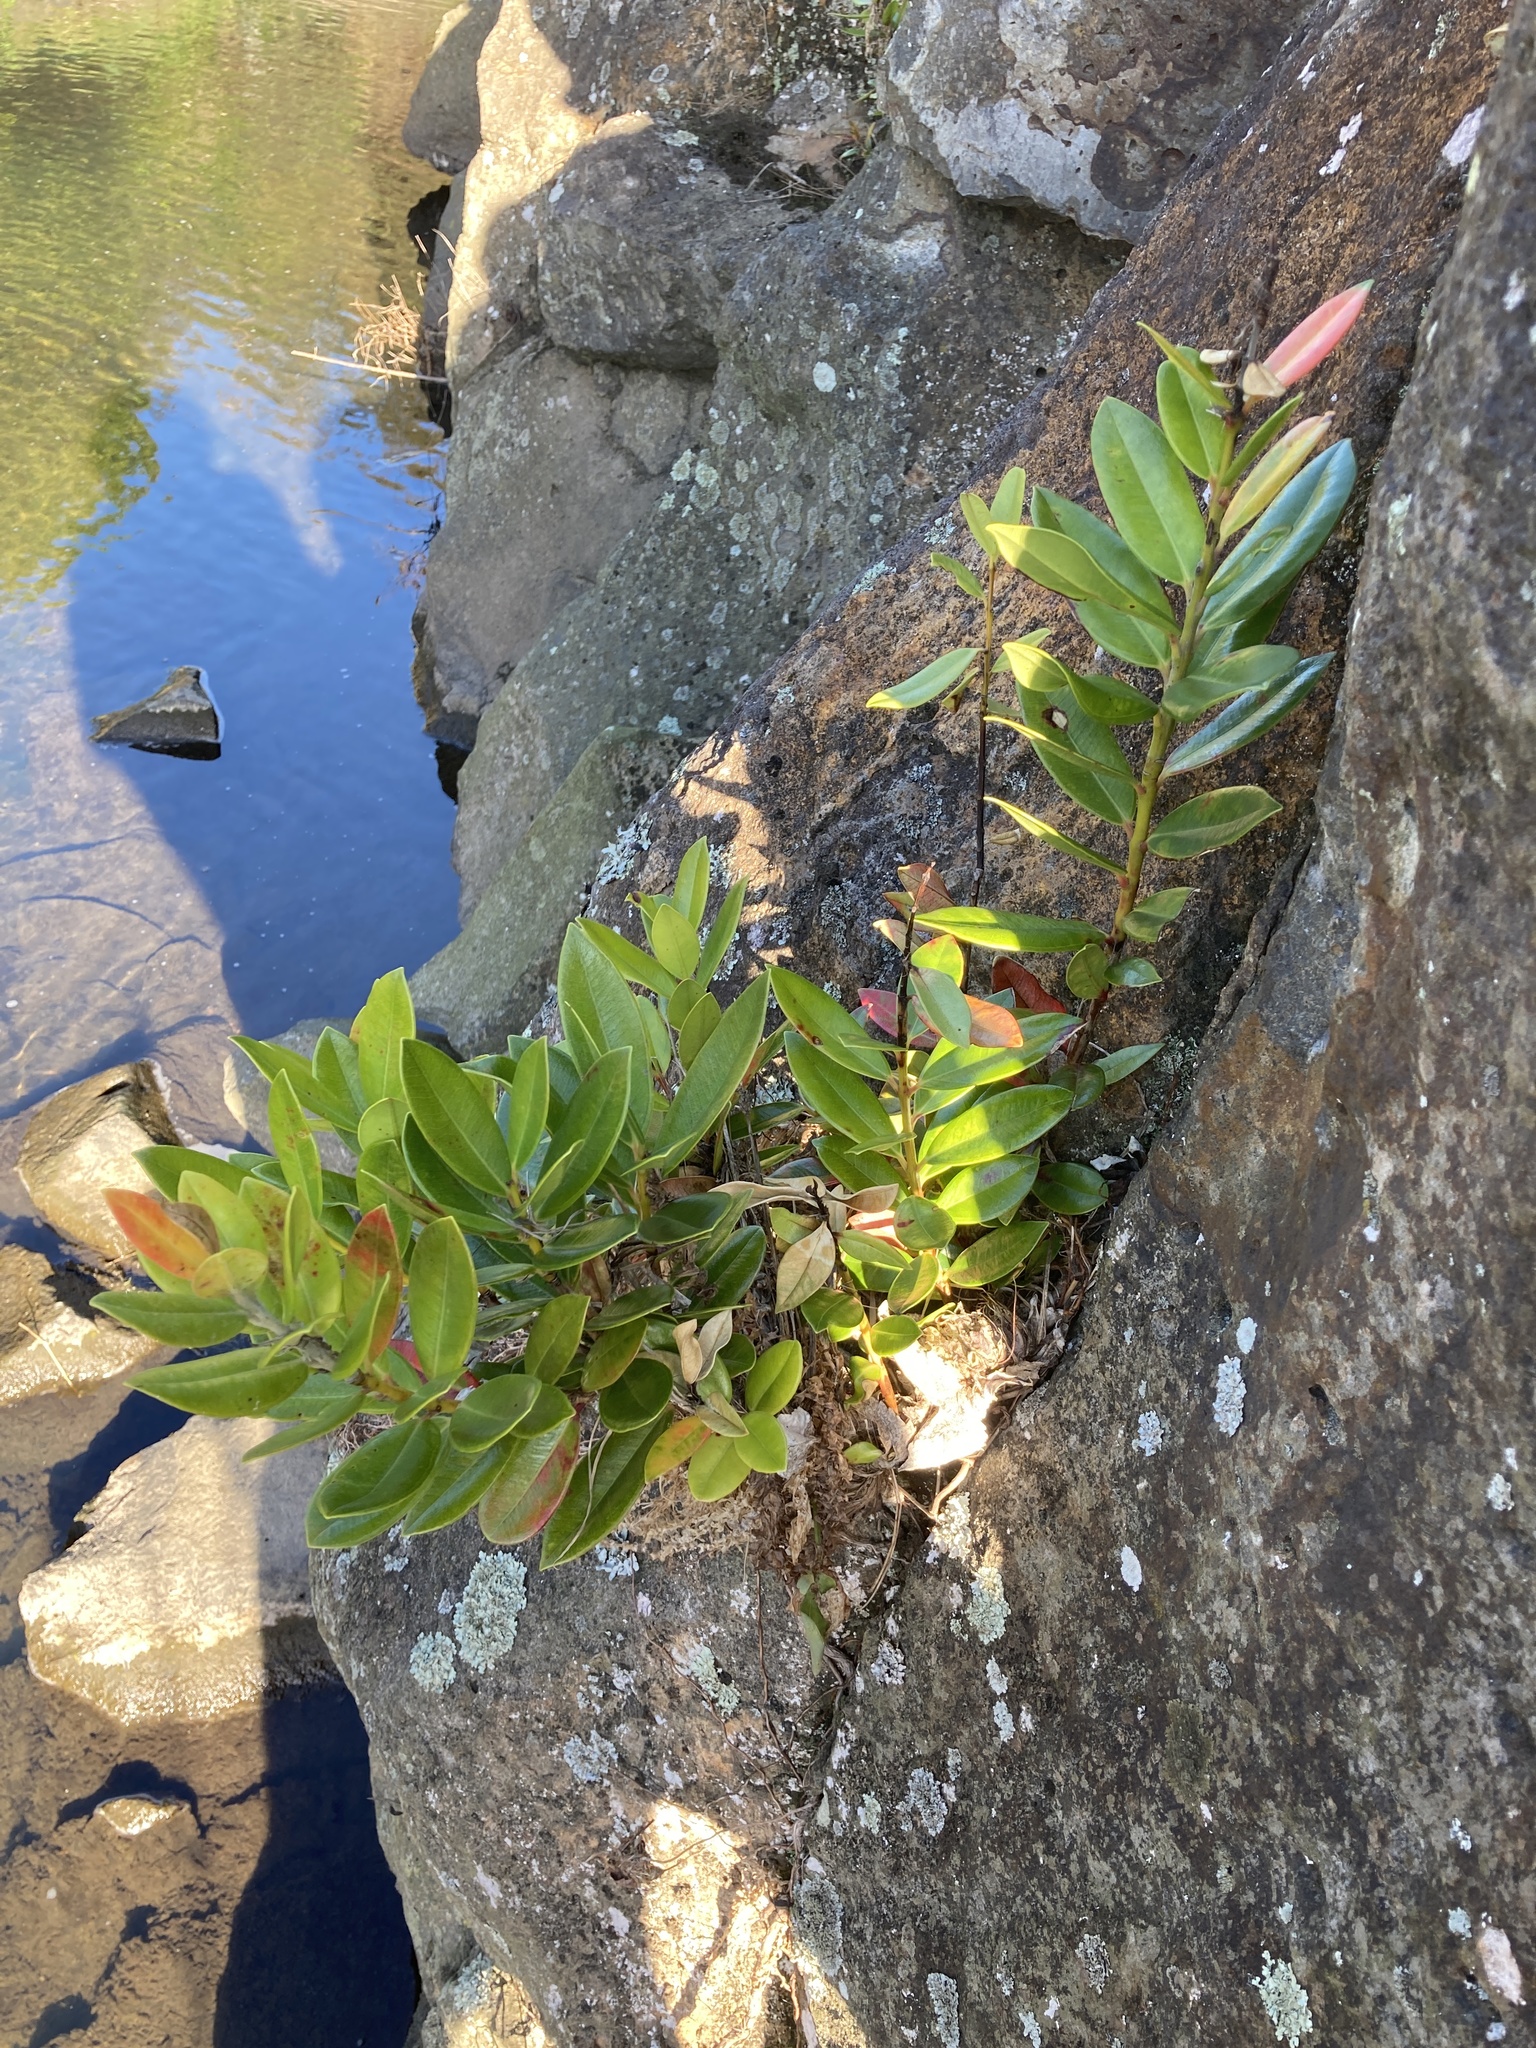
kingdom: Plantae
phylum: Tracheophyta
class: Magnoliopsida
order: Myrtales
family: Myrtaceae
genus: Metrosideros
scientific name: Metrosideros excelsa
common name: New zealand christmastree
